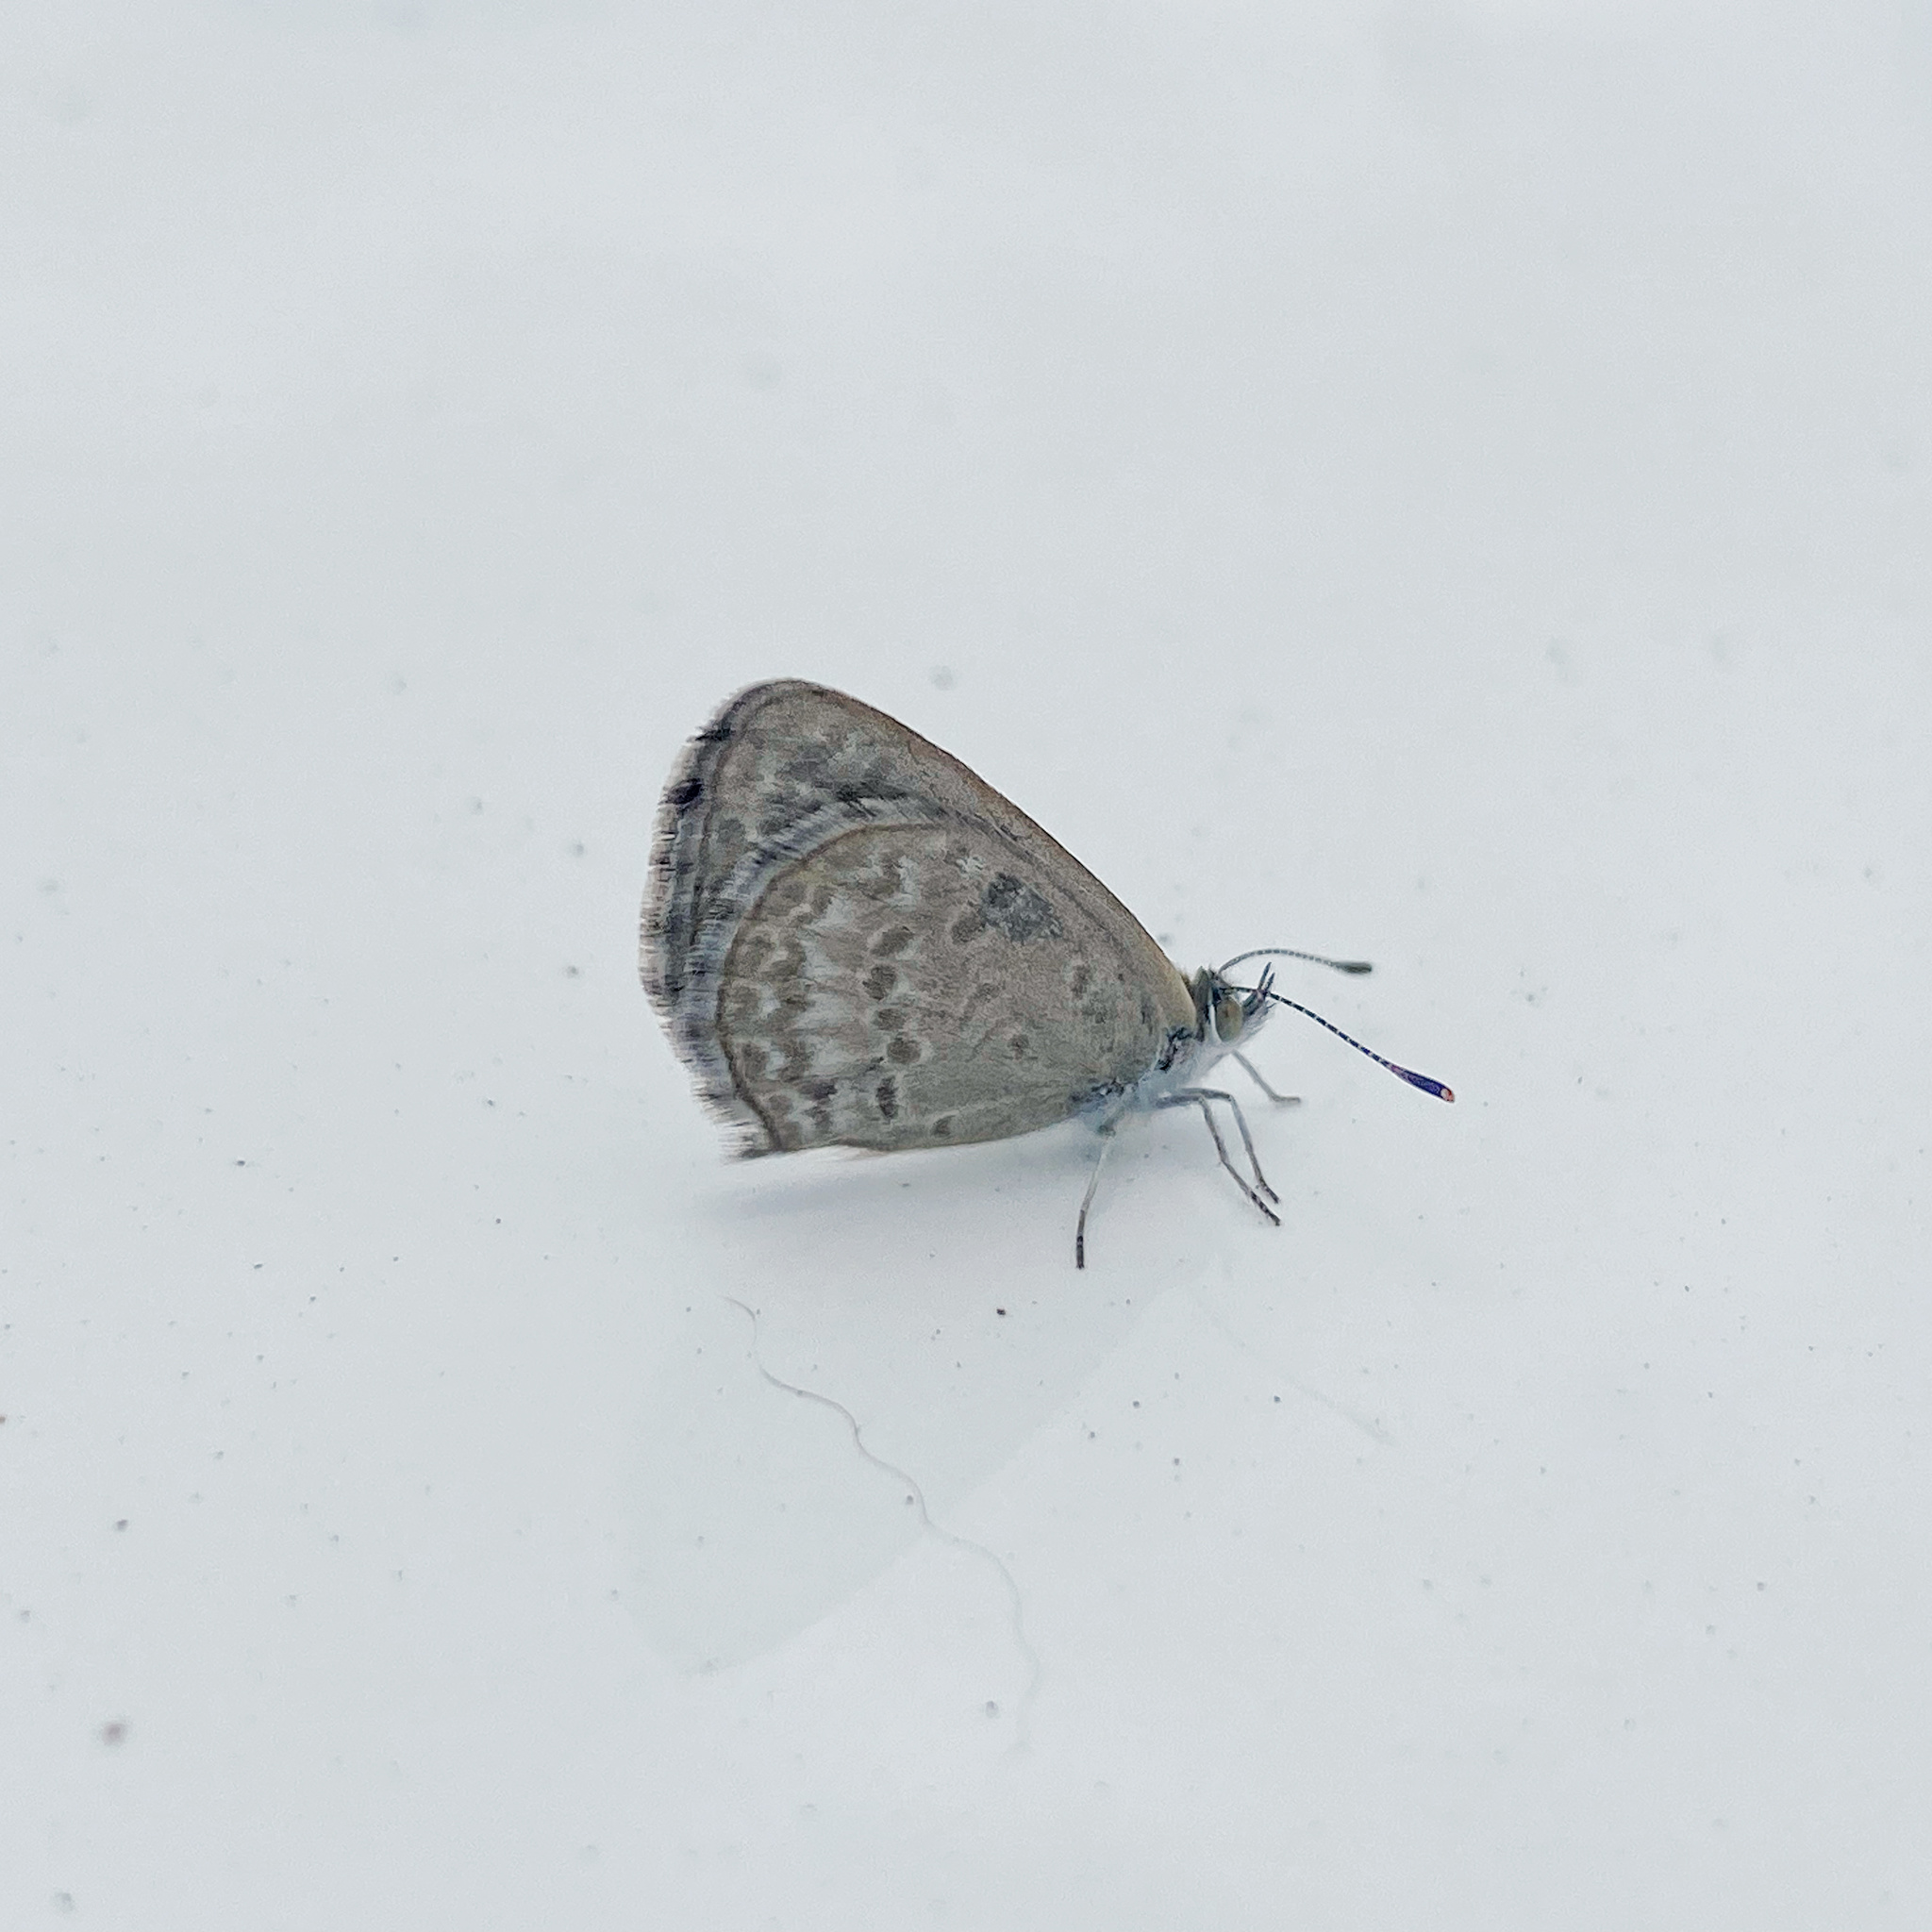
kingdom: Animalia
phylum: Arthropoda
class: Insecta
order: Lepidoptera
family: Lycaenidae
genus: Zizina
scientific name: Zizina labradus
